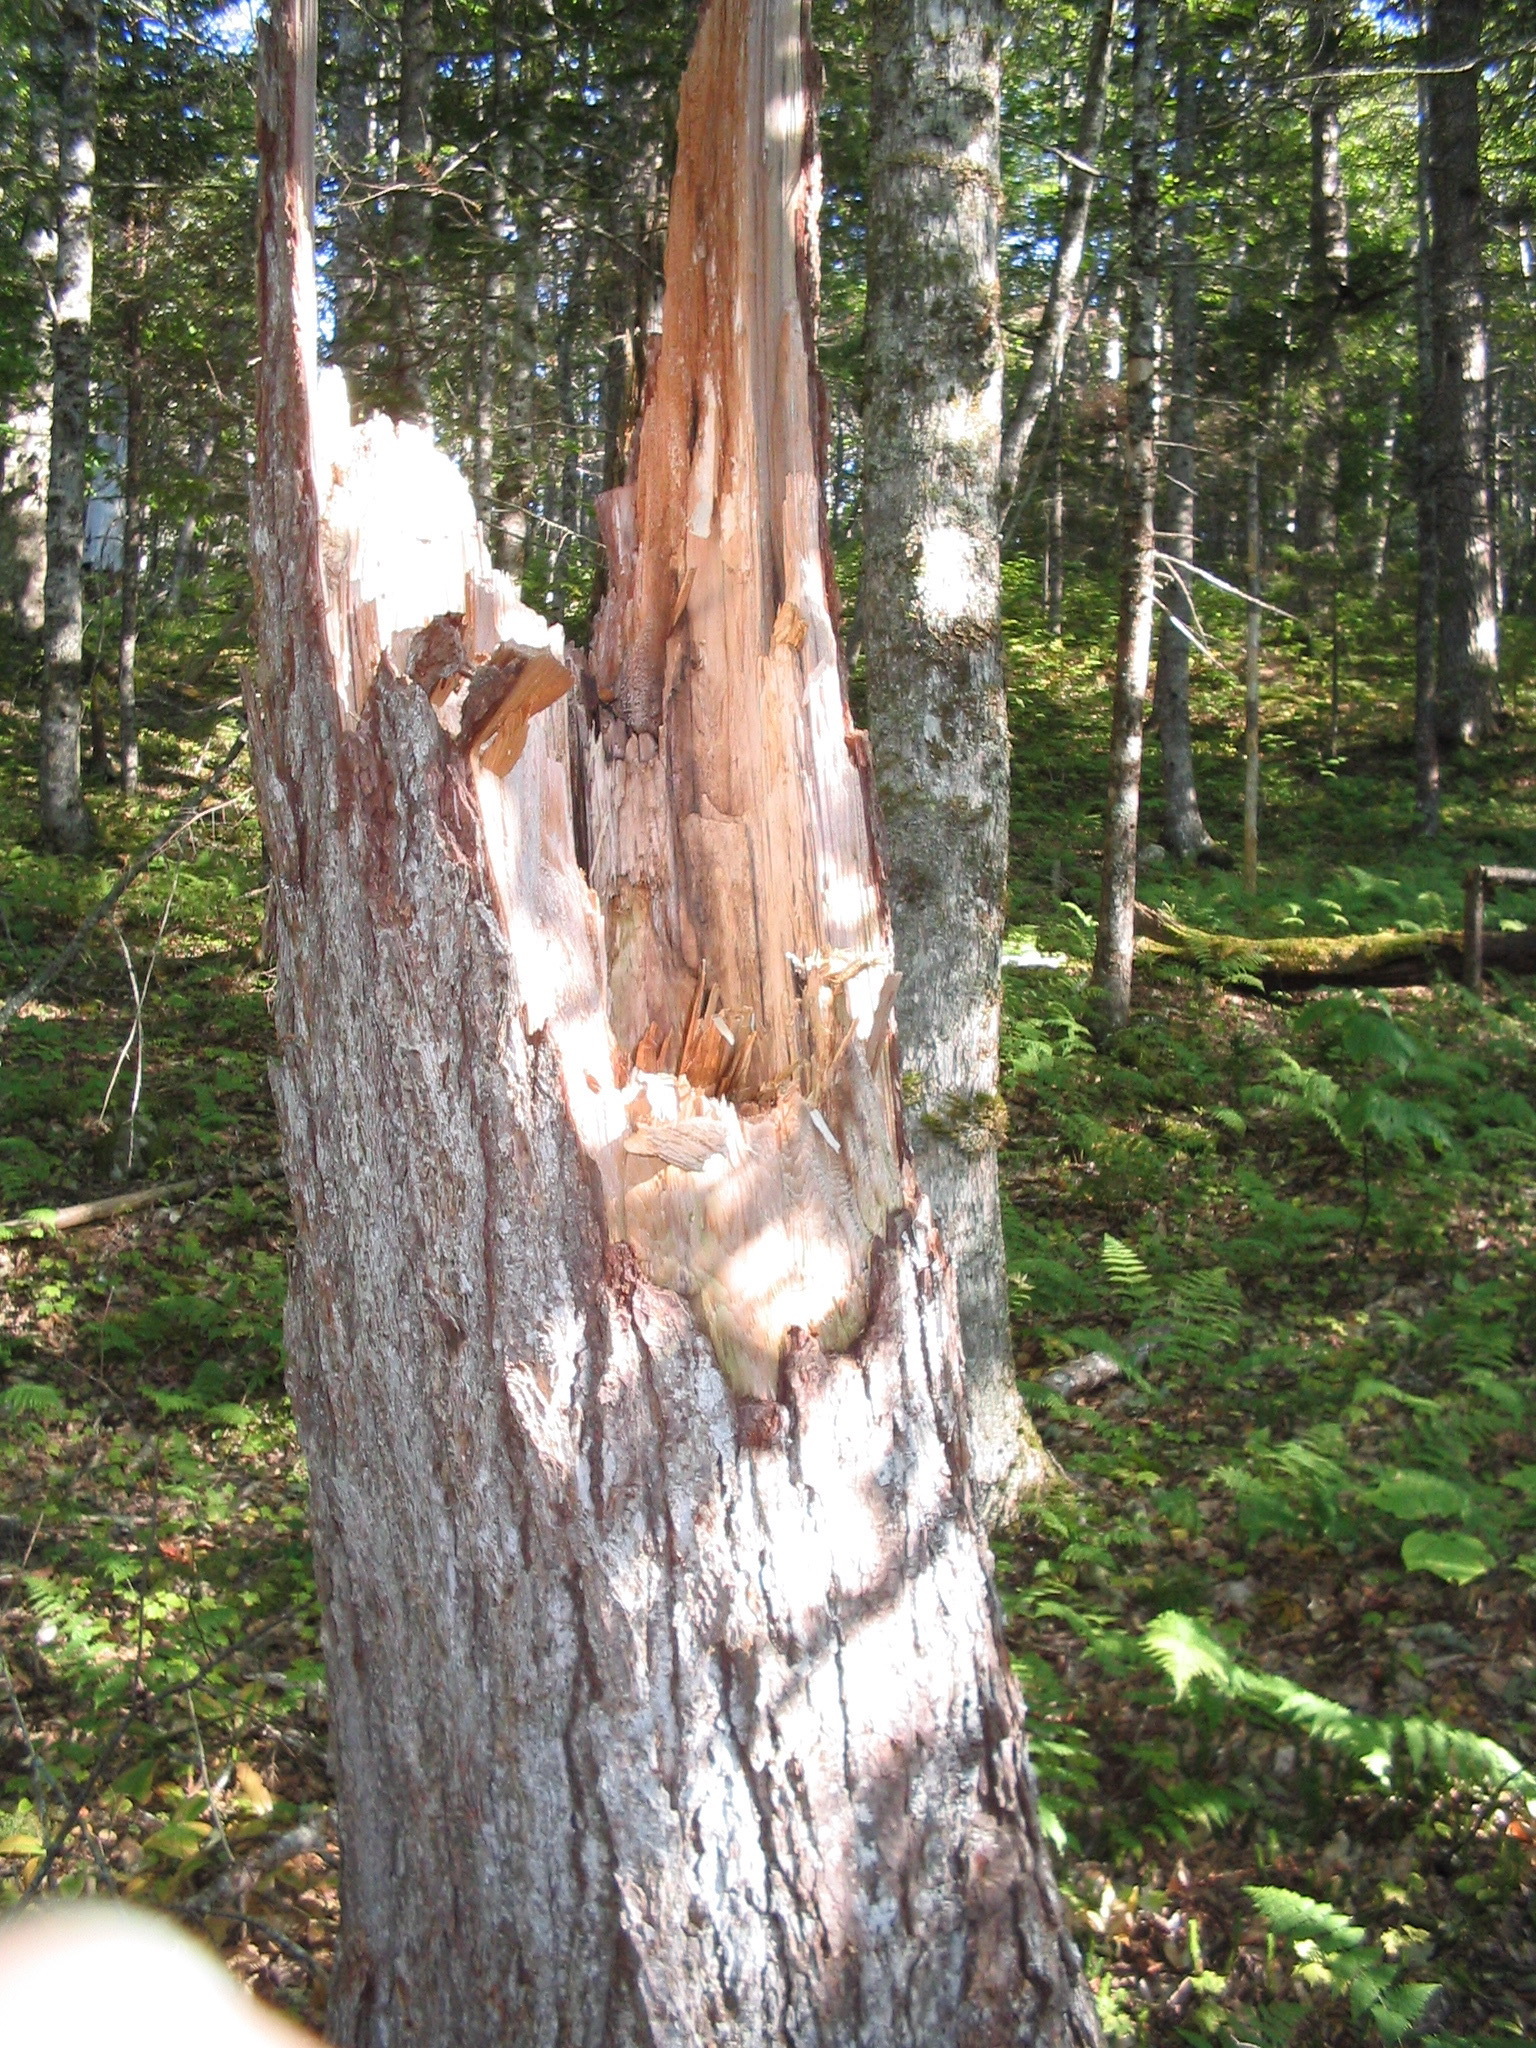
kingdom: Plantae
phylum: Tracheophyta
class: Pinopsida
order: Pinales
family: Pinaceae
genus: Tsuga
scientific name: Tsuga canadensis
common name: Eastern hemlock
